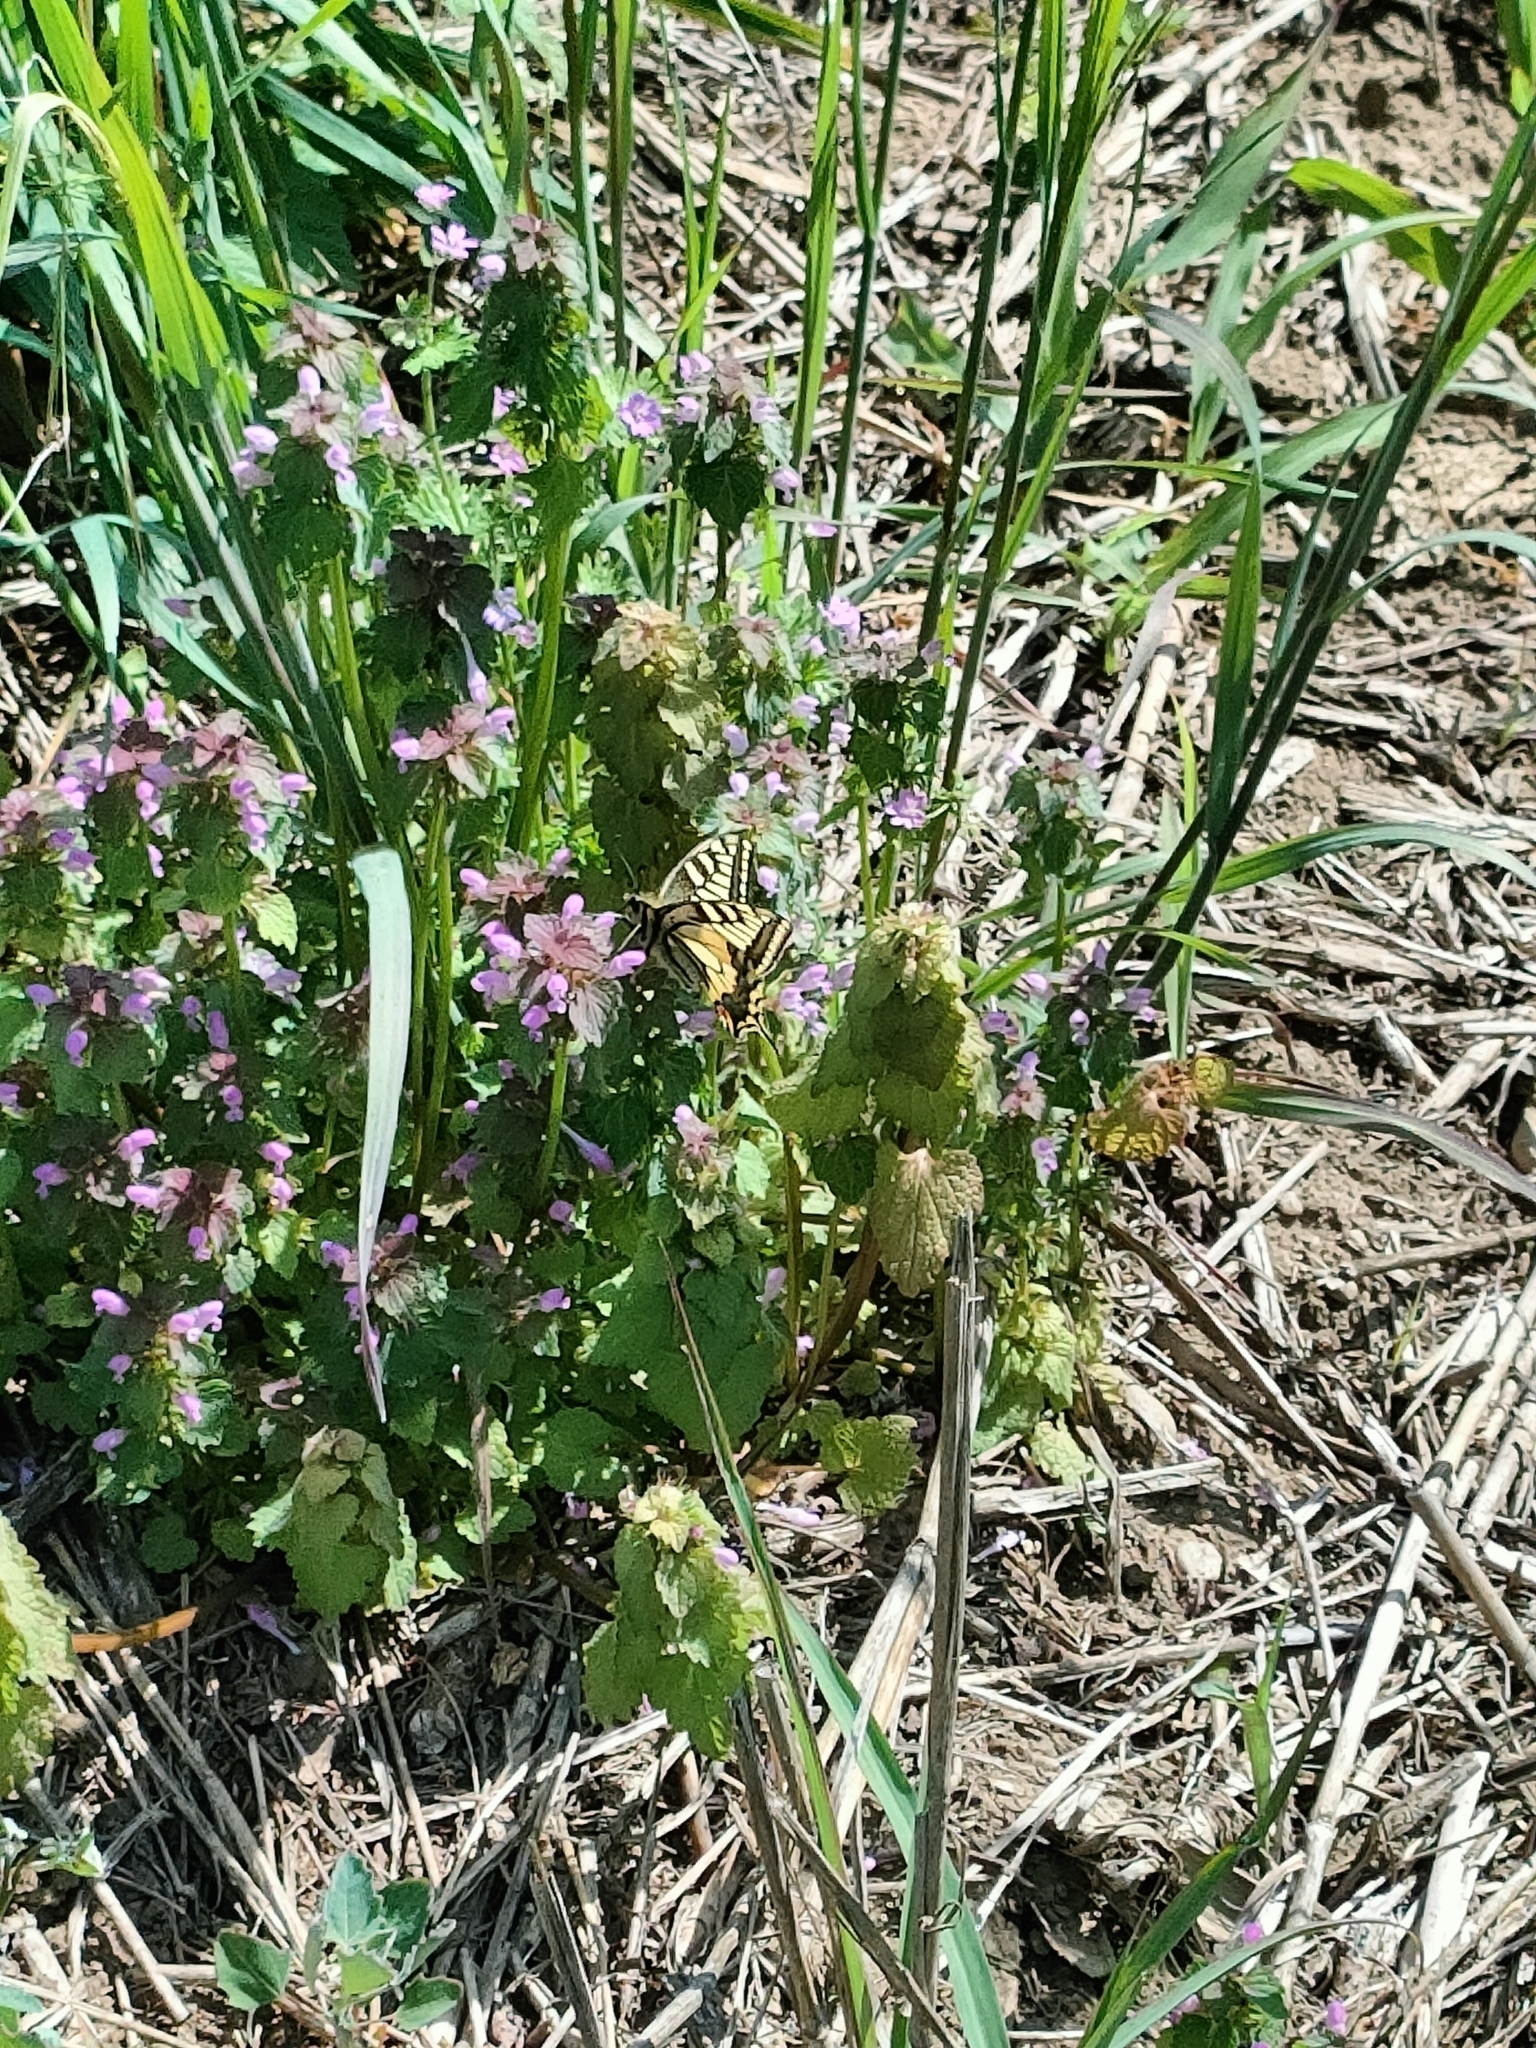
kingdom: Animalia
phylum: Arthropoda
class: Insecta
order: Lepidoptera
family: Papilionidae
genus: Papilio
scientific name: Papilio machaon
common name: Swallowtail
